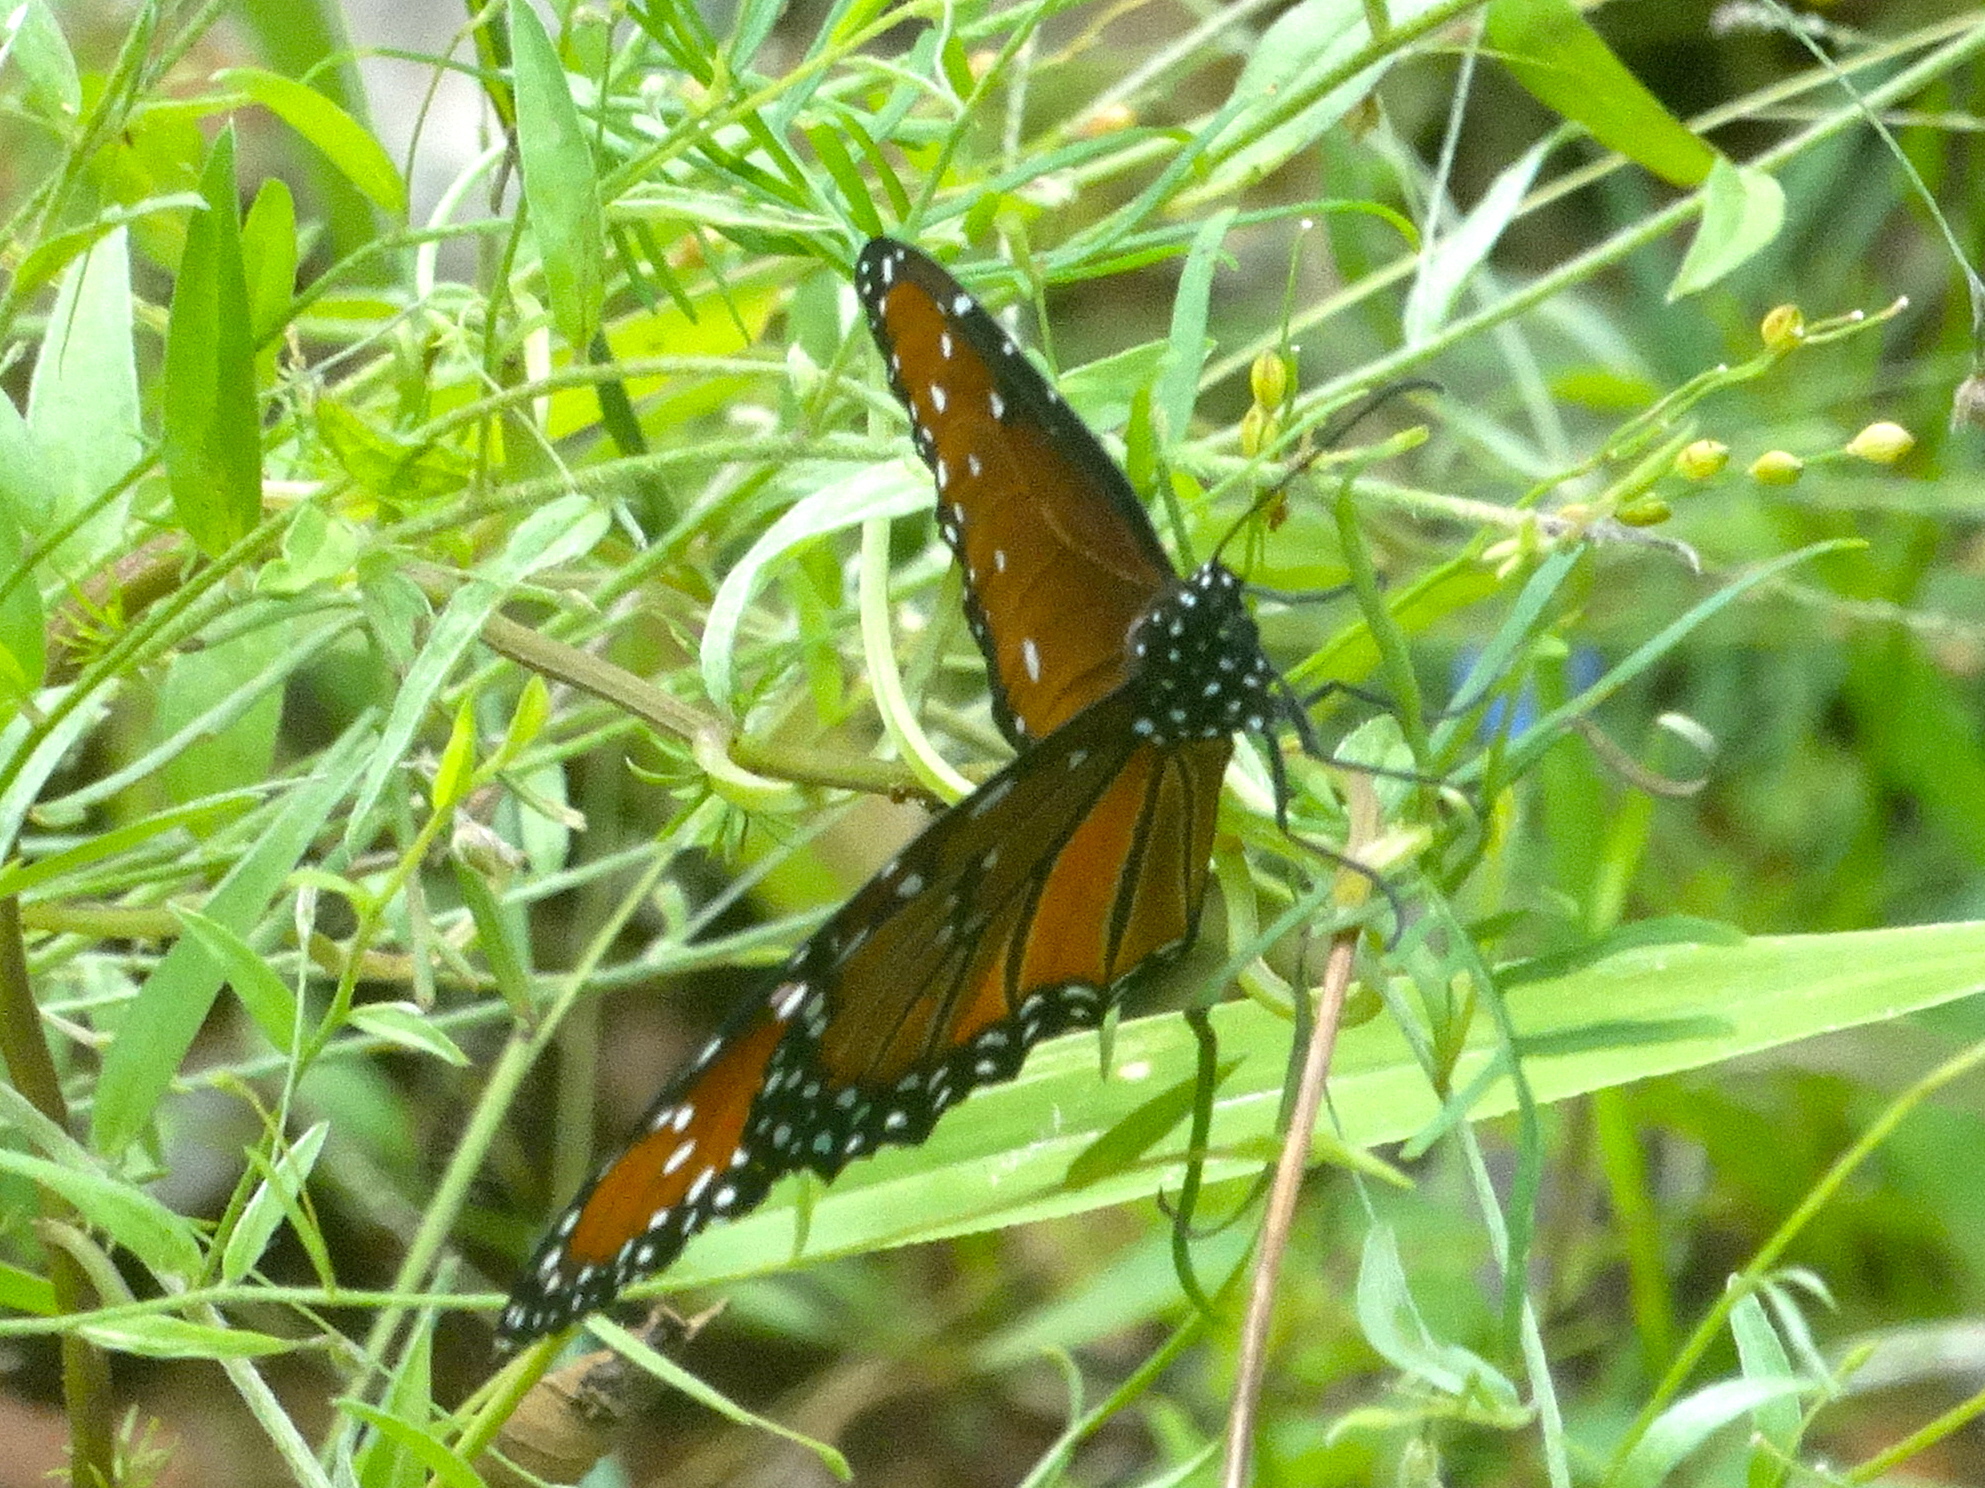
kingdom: Animalia
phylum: Arthropoda
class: Insecta
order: Lepidoptera
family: Nymphalidae
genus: Danaus
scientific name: Danaus gilippus
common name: Queen
